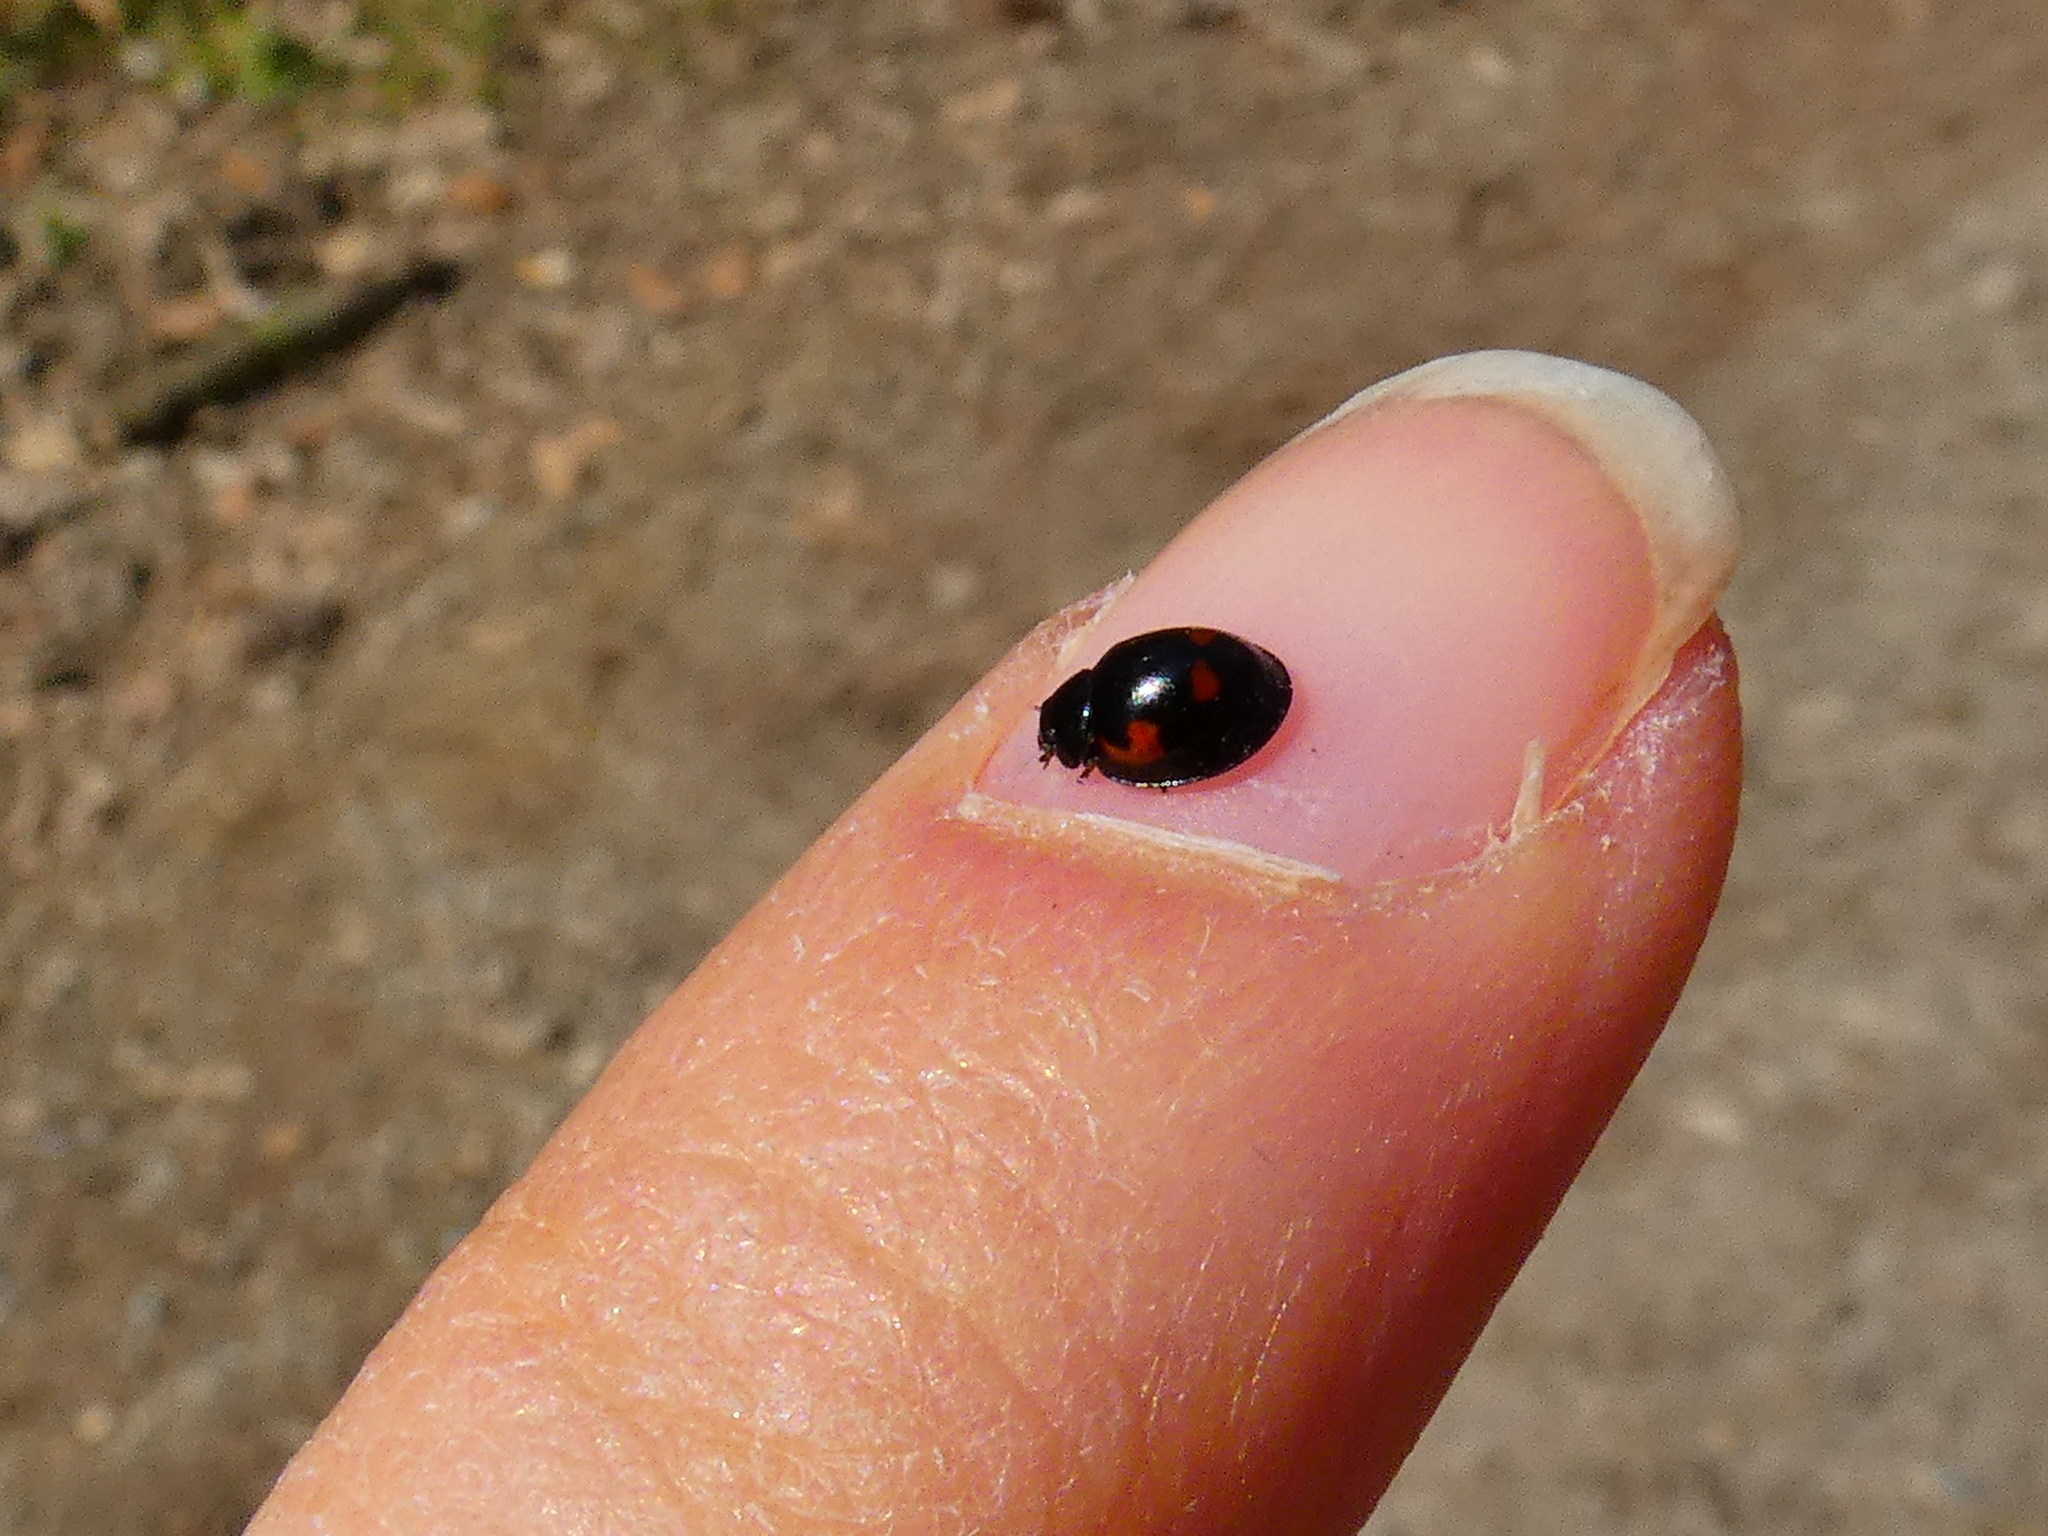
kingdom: Animalia
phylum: Arthropoda
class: Insecta
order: Coleoptera
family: Coccinellidae
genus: Brumus
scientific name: Brumus quadripustulatus
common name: Ladybird beetle
